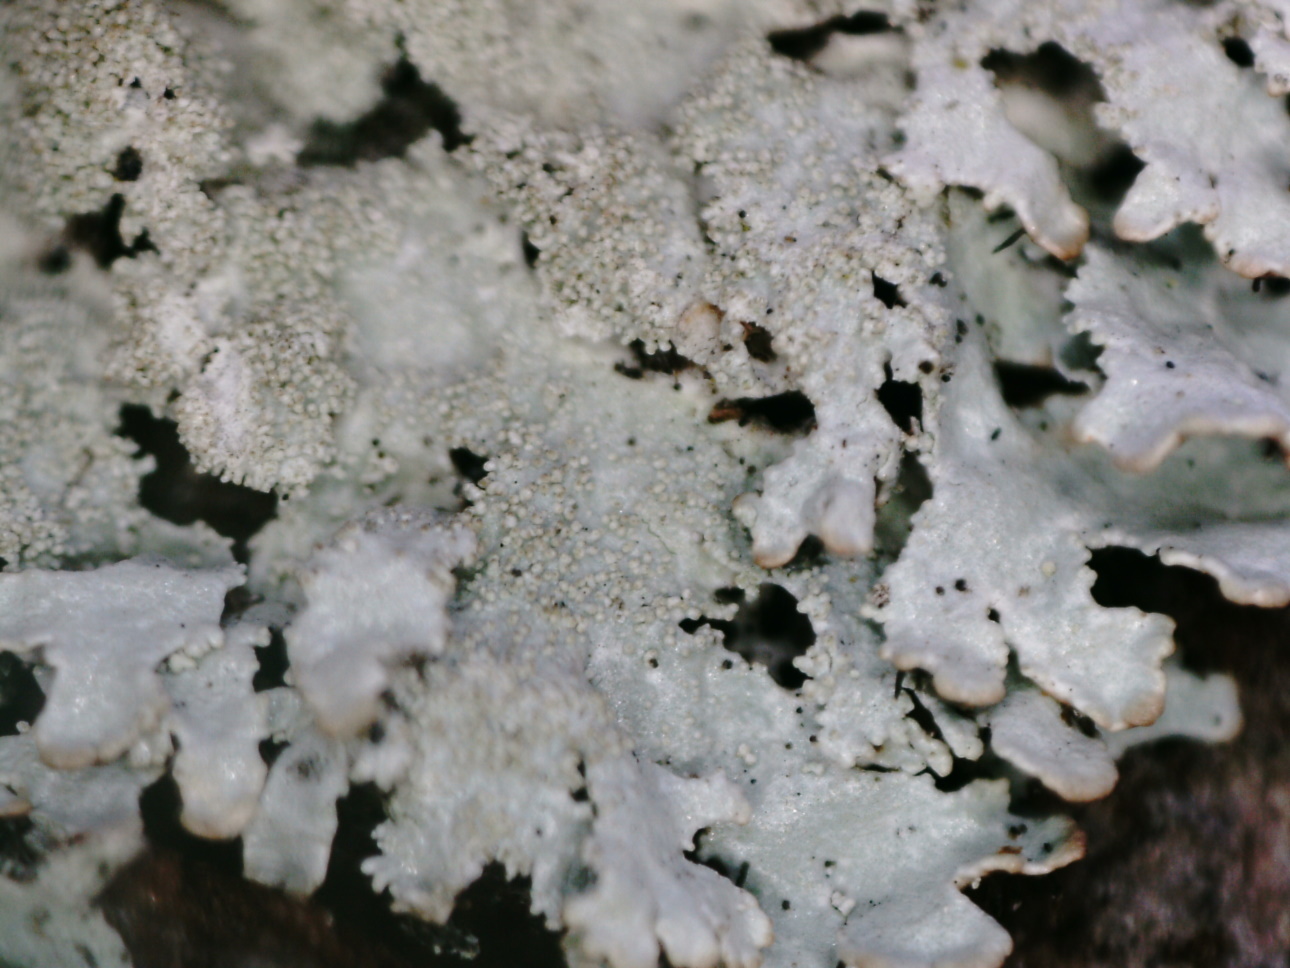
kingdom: Fungi
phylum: Ascomycota
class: Lecanoromycetes
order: Lecanorales
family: Parmeliaceae
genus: Imshaugia
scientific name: Imshaugia aleurites
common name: Salted starburst lichen
